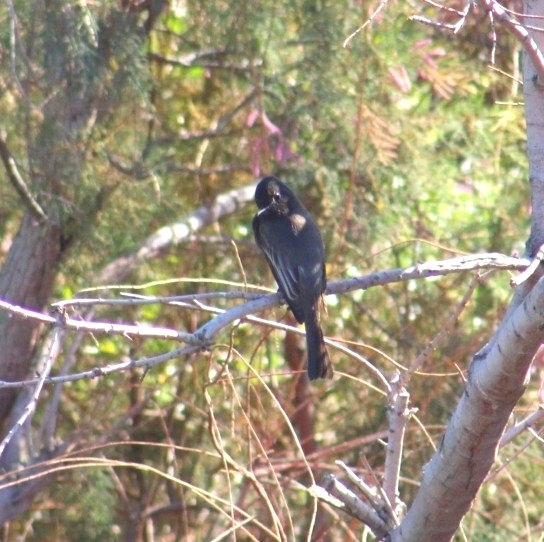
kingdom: Animalia
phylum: Chordata
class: Aves
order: Passeriformes
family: Tyrannidae
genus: Sayornis
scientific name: Sayornis nigricans
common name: Black phoebe
